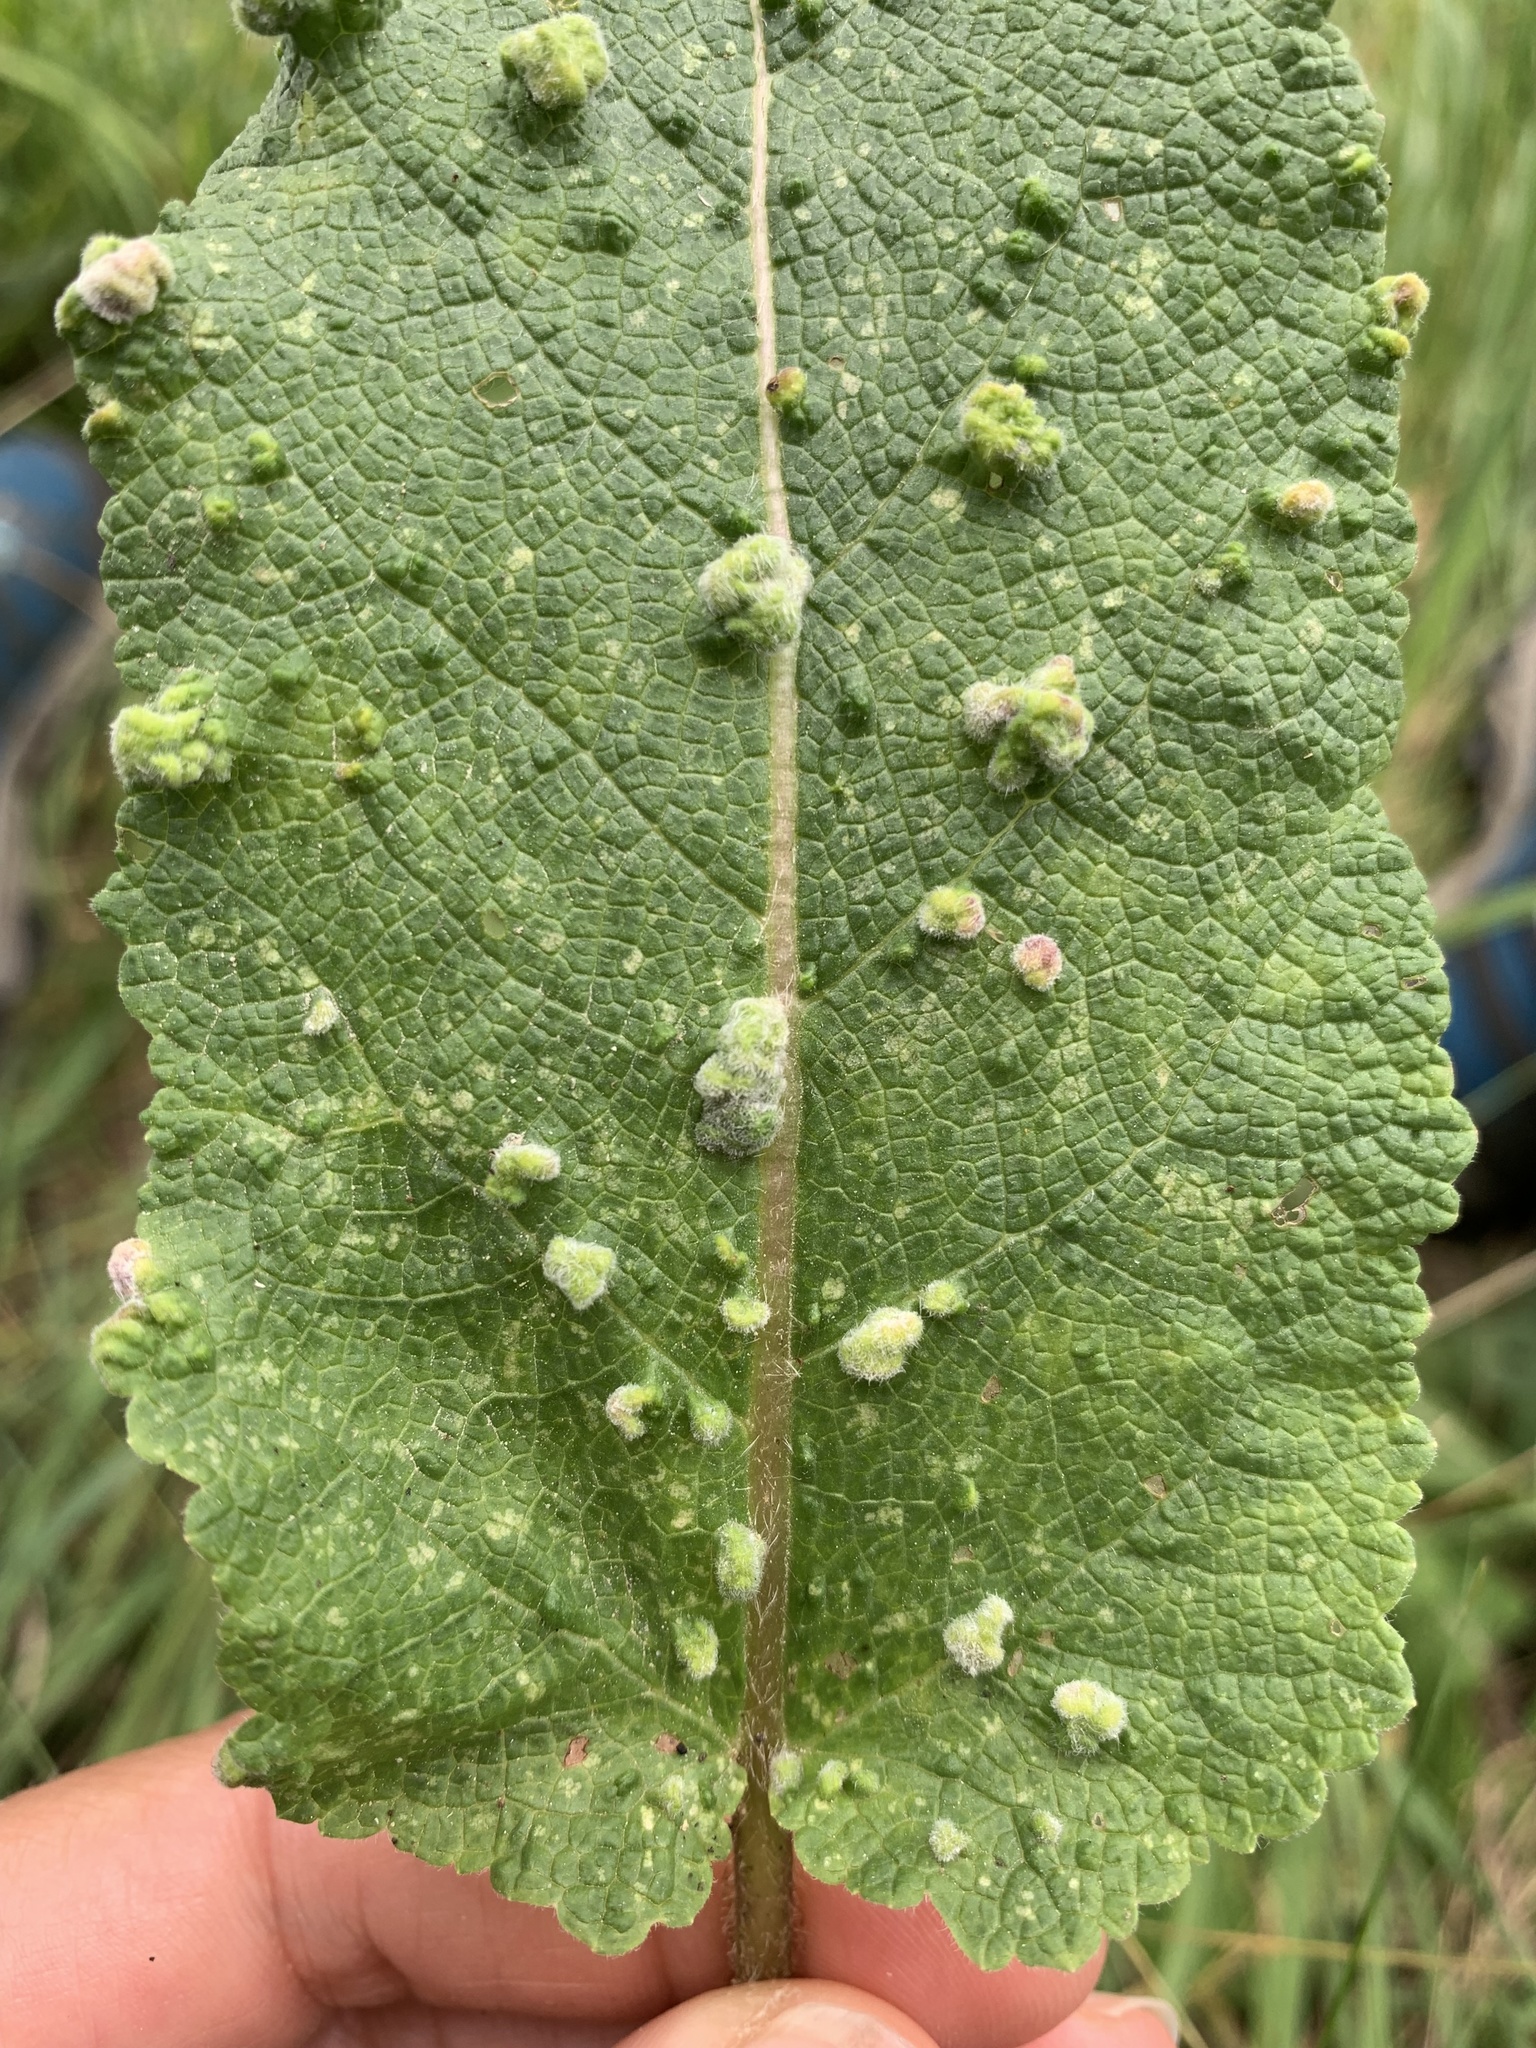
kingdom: Animalia
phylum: Arthropoda
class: Arachnida
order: Trombidiformes
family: Eriophyidae
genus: Aceria
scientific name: Aceria salviae
